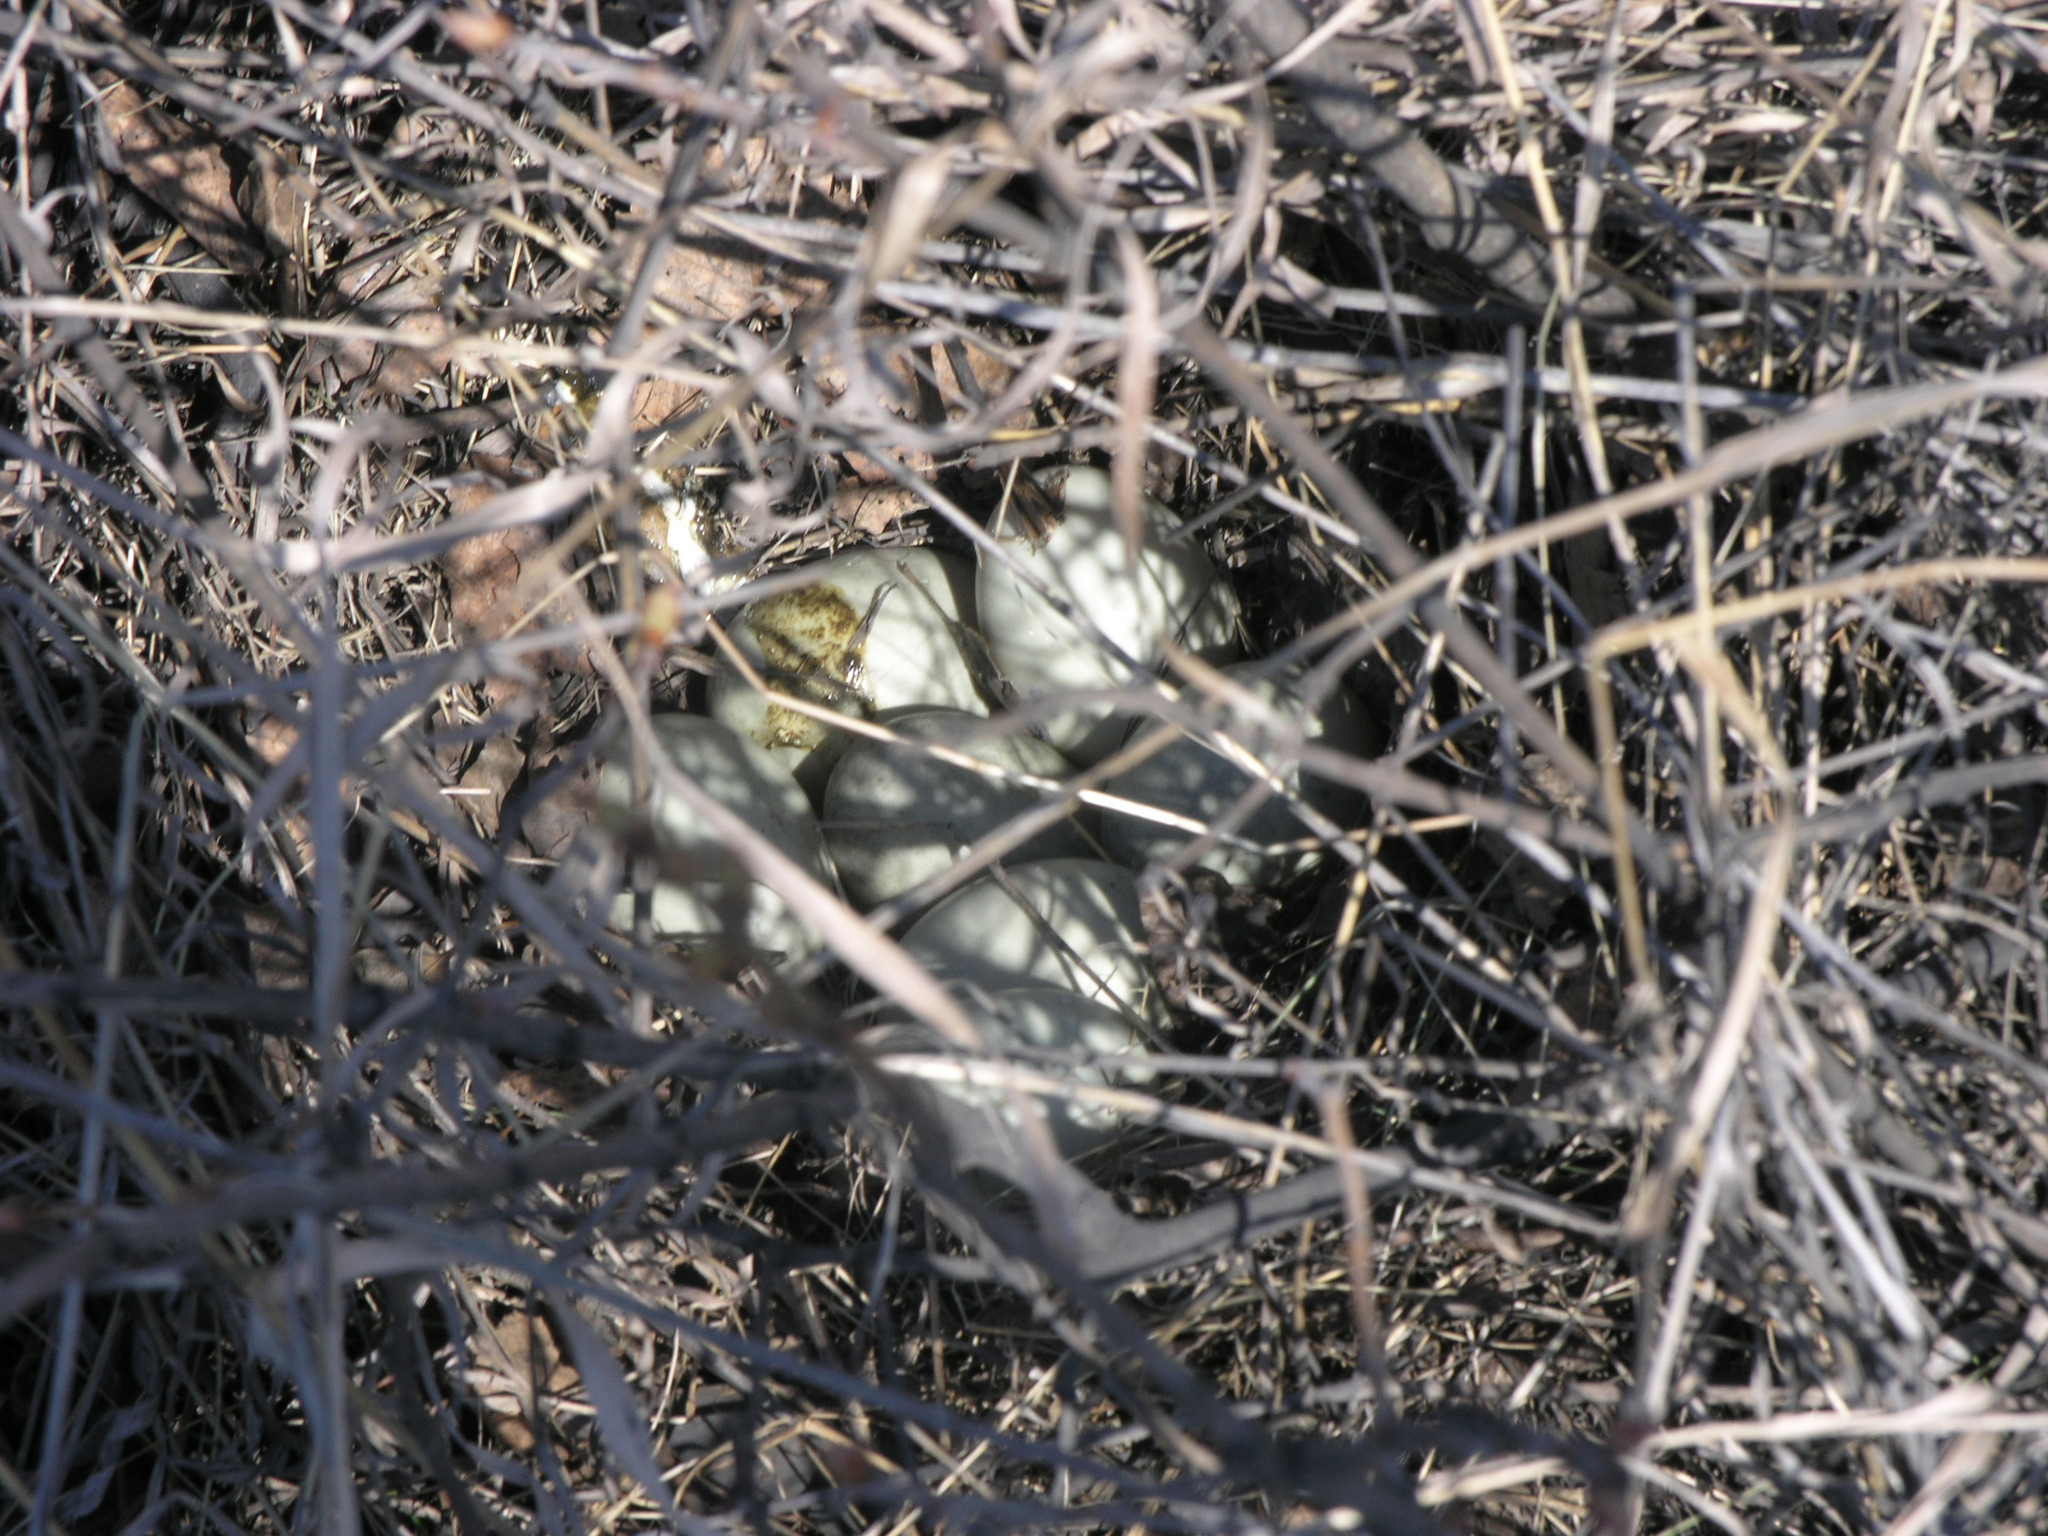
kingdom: Animalia
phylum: Chordata
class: Aves
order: Anseriformes
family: Anatidae
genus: Anas
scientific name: Anas platyrhynchos
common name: Mallard
